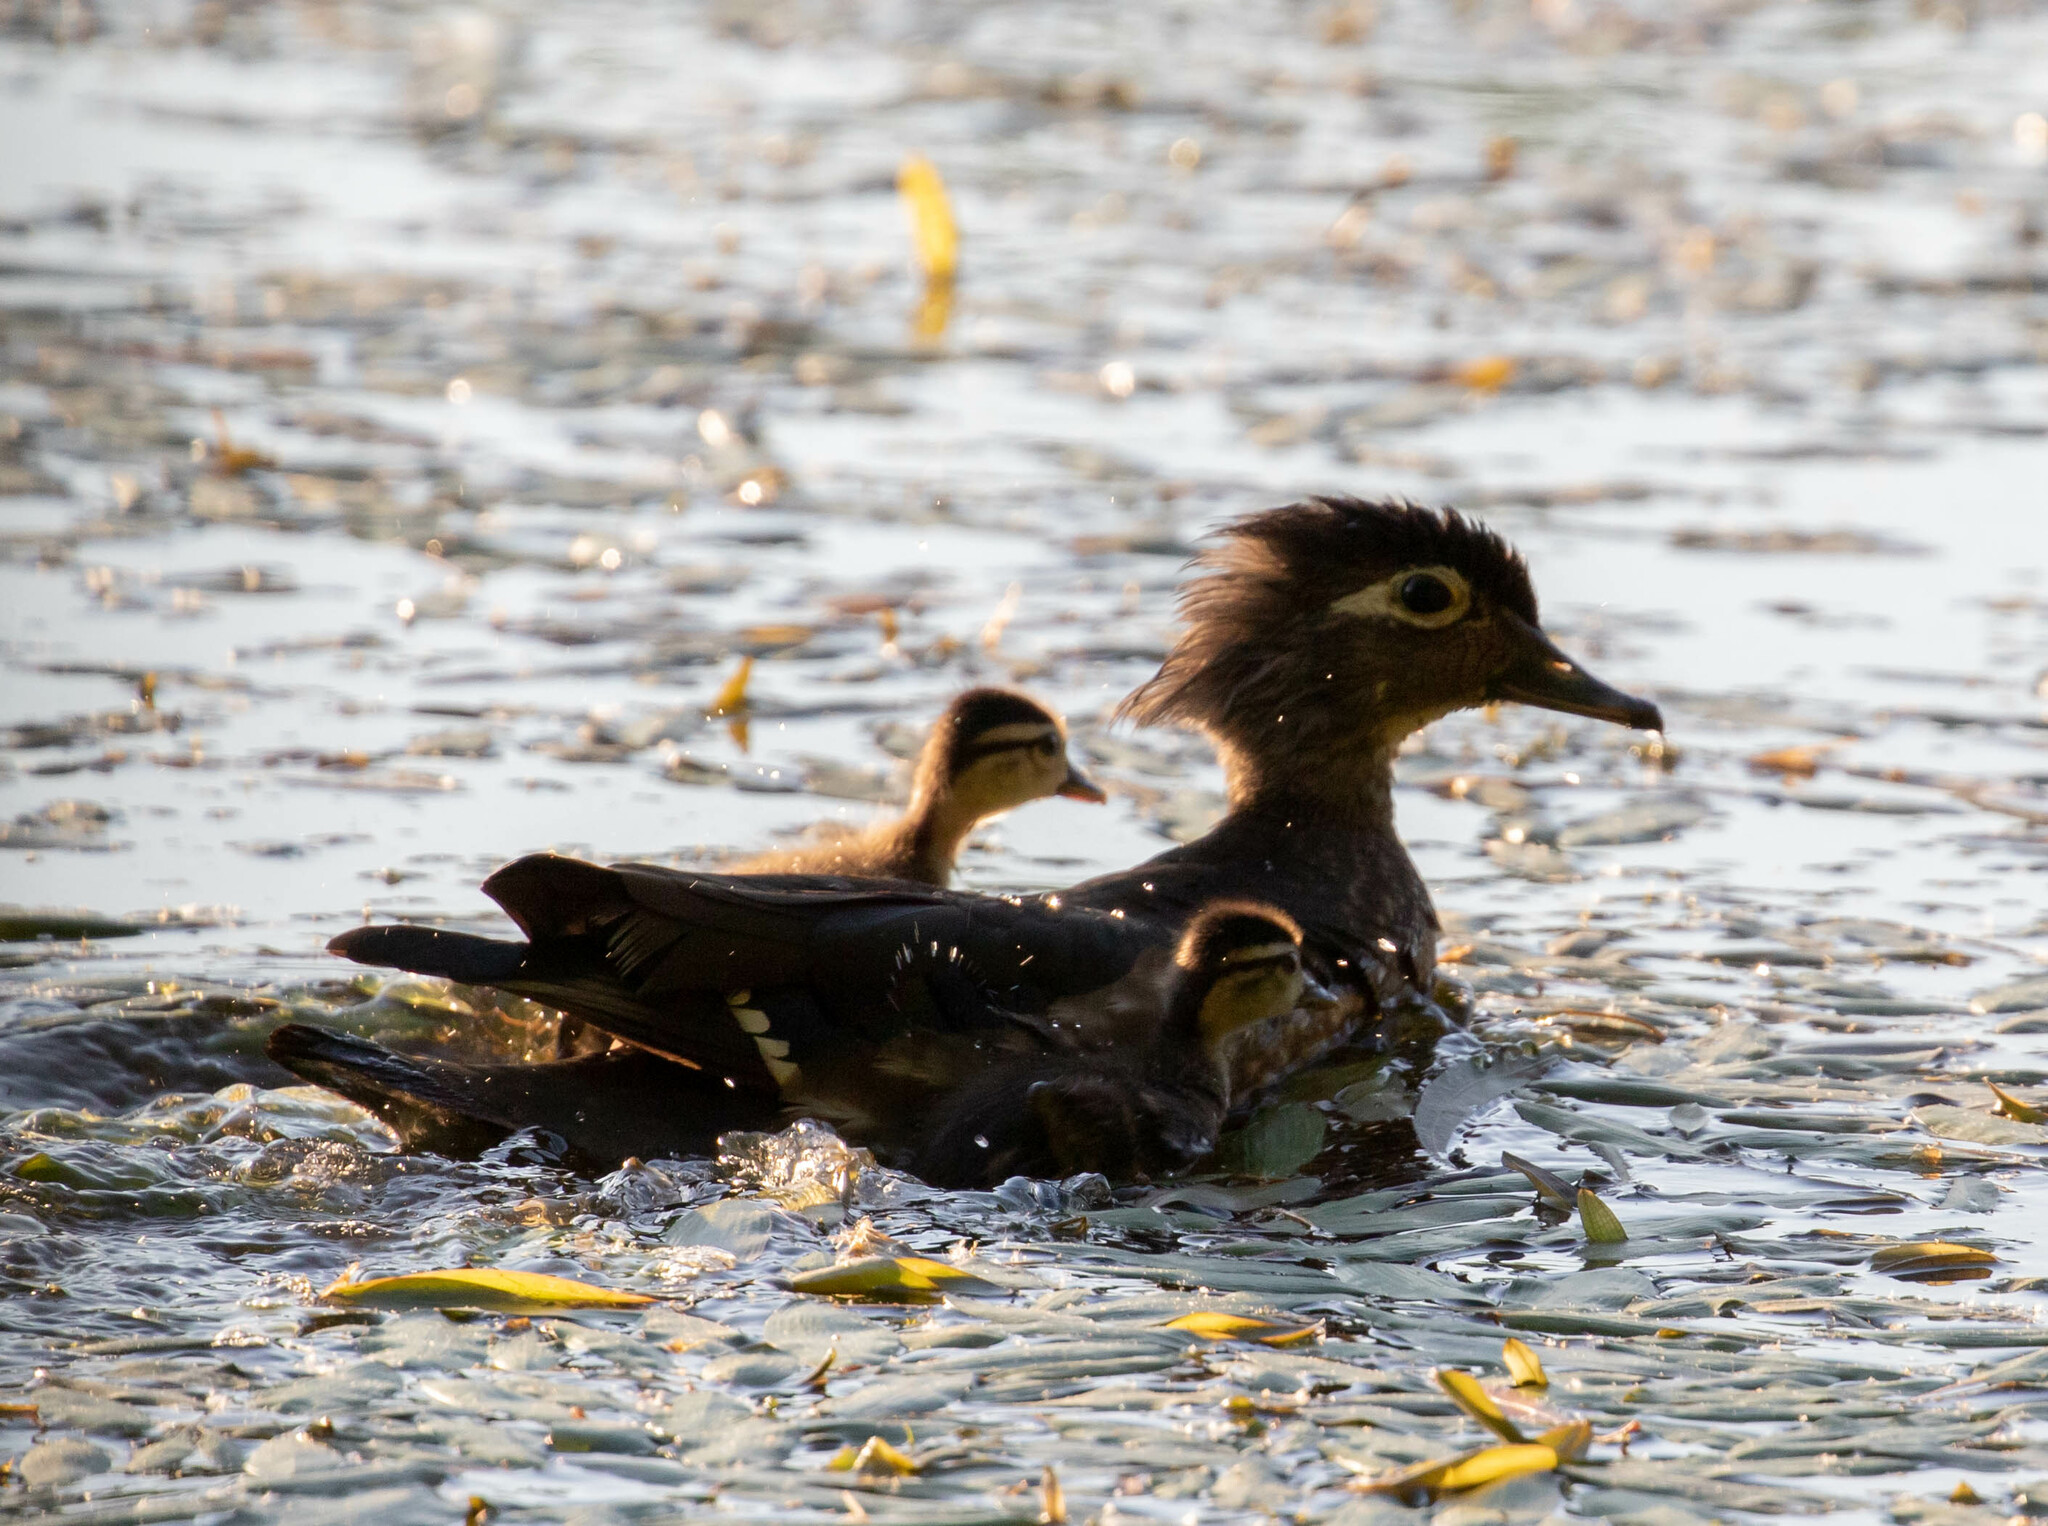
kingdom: Animalia
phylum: Chordata
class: Aves
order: Anseriformes
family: Anatidae
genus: Aix
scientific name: Aix sponsa
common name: Wood duck
